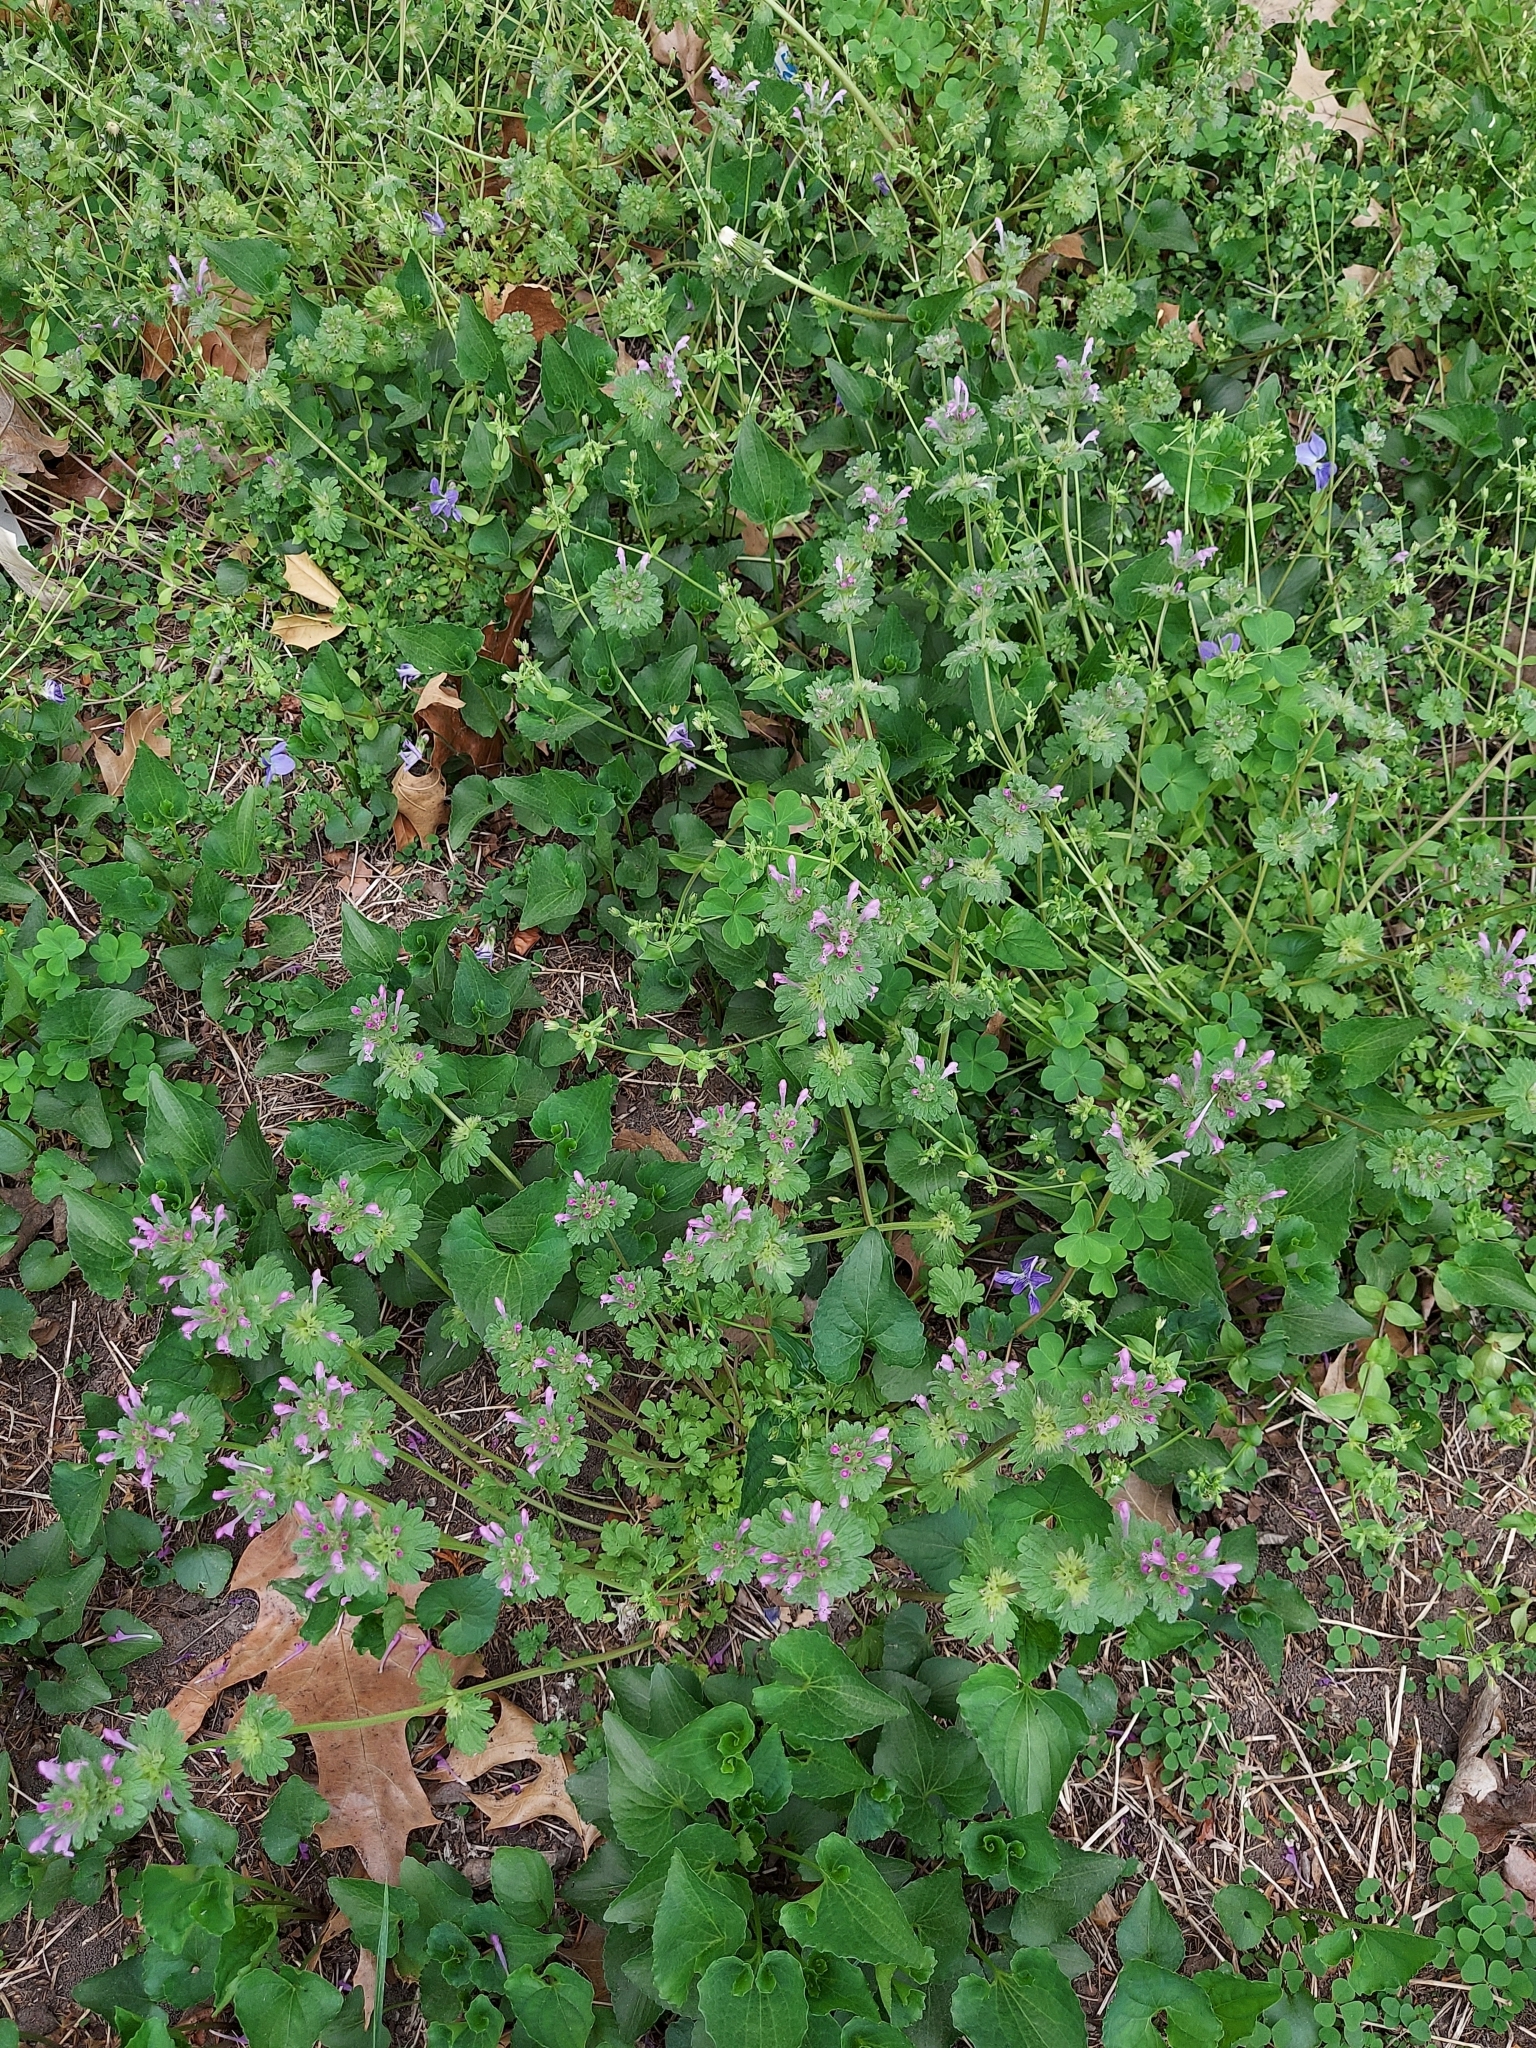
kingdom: Plantae
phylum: Tracheophyta
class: Magnoliopsida
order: Lamiales
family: Lamiaceae
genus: Lamium
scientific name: Lamium amplexicaule
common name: Henbit dead-nettle
